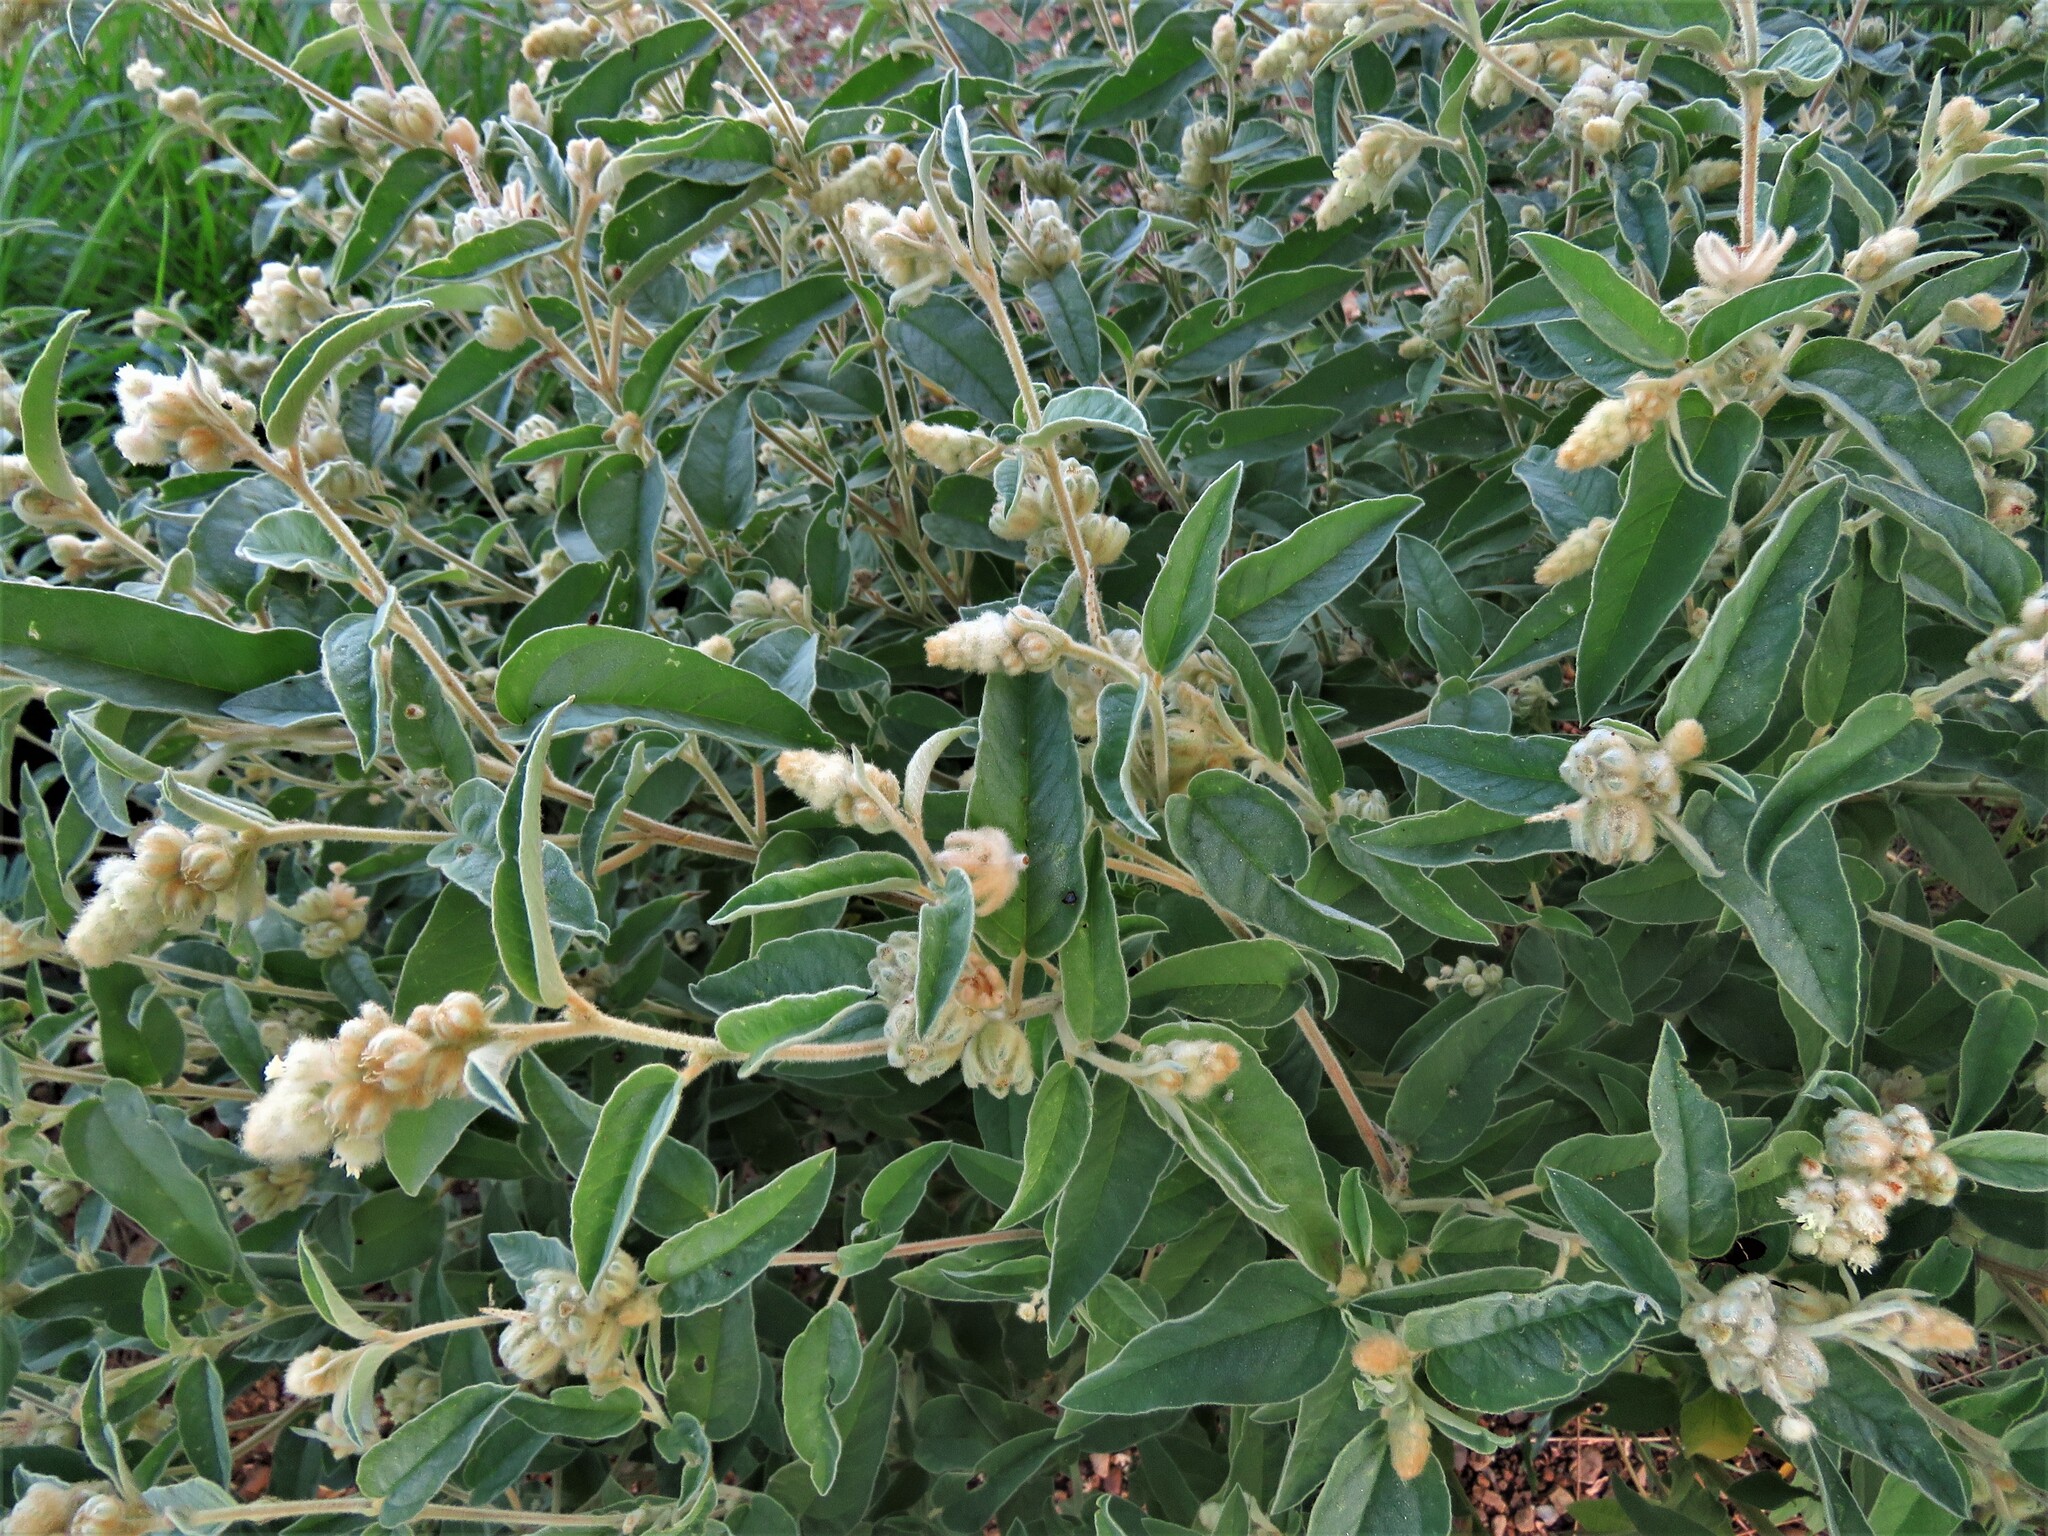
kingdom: Plantae
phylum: Tracheophyta
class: Magnoliopsida
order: Malpighiales
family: Euphorbiaceae
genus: Croton
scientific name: Croton lindheimeri
